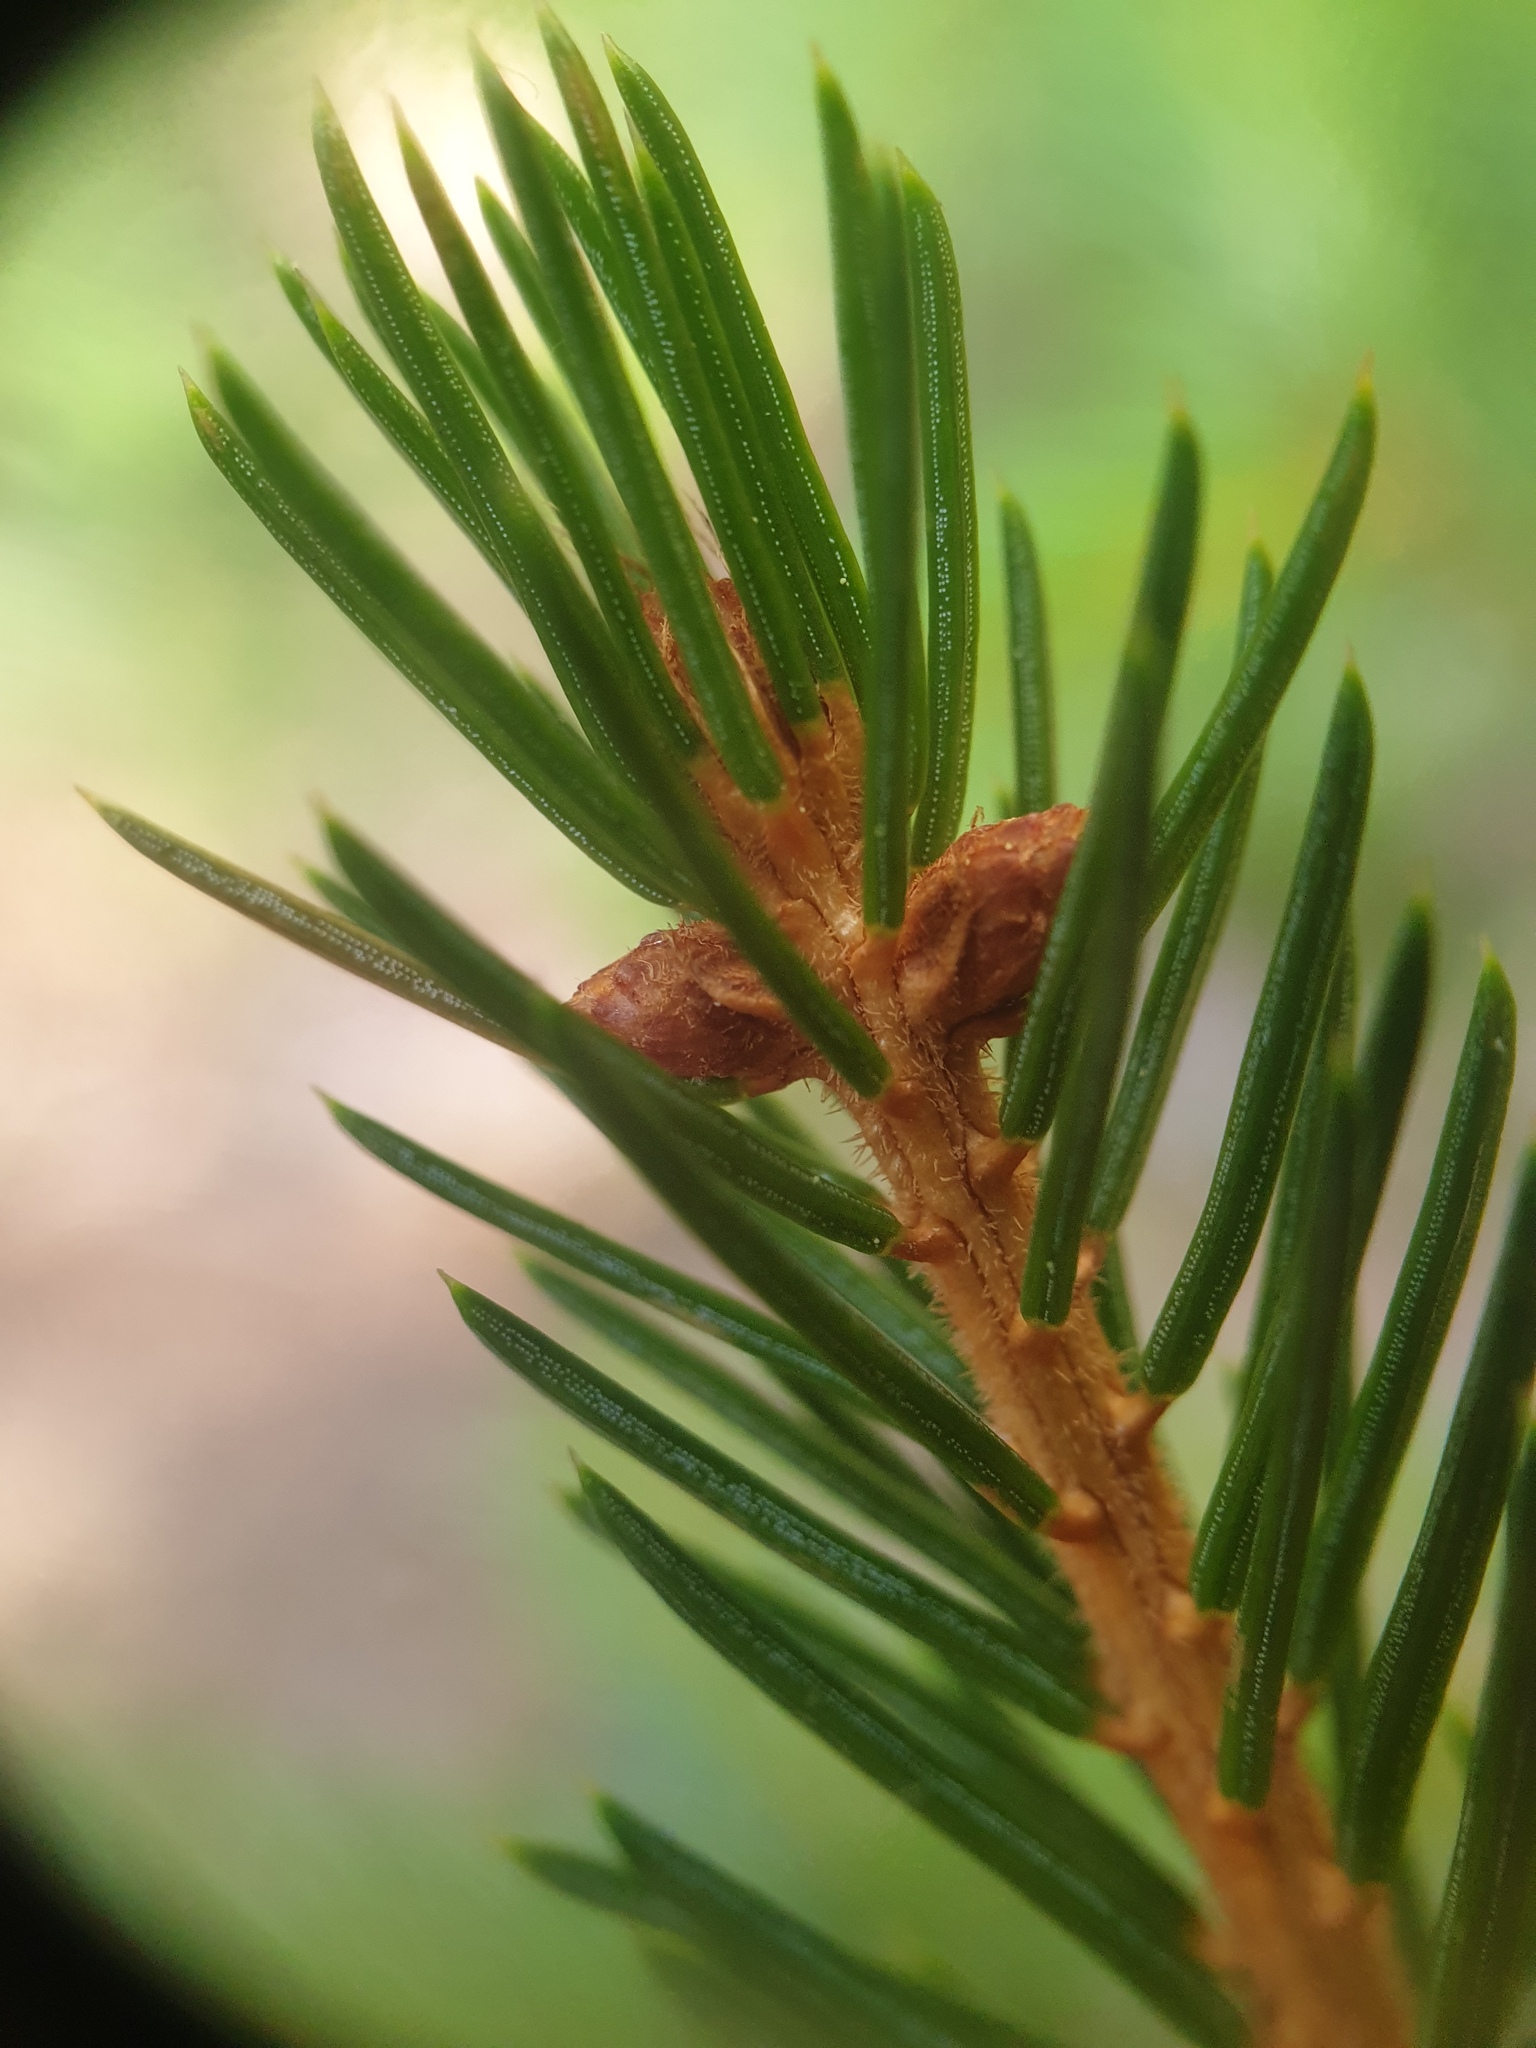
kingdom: Plantae
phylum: Tracheophyta
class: Pinopsida
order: Pinales
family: Pinaceae
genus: Picea
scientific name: Picea rubens
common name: Red spruce
